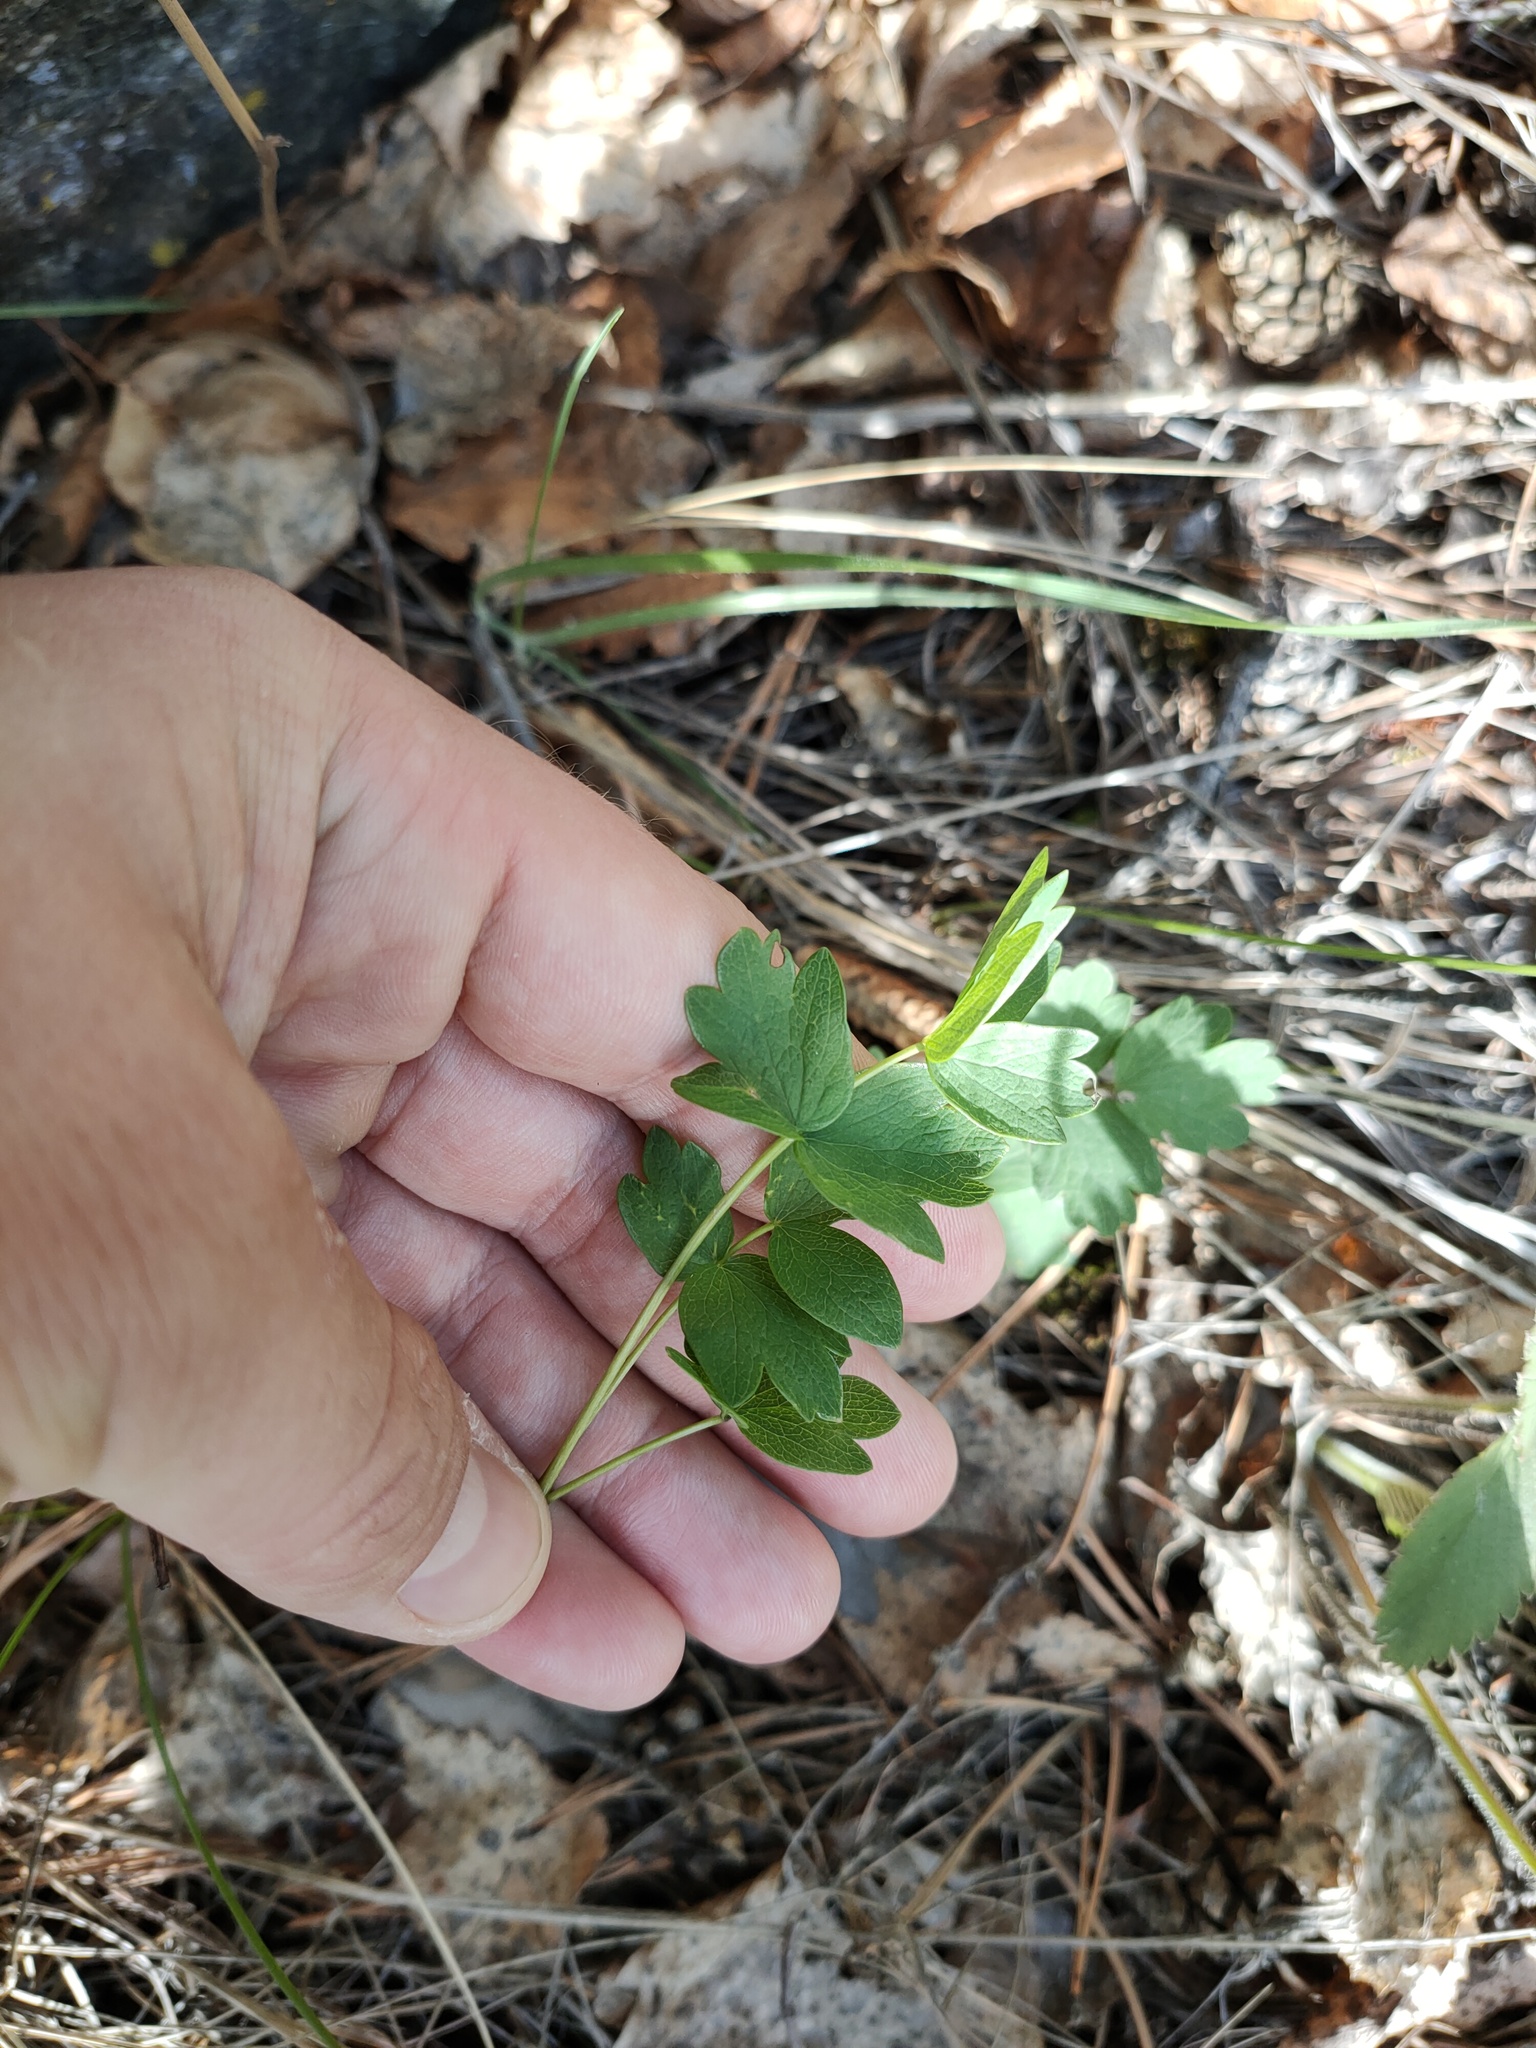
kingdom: Plantae
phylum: Tracheophyta
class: Magnoliopsida
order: Ranunculales
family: Ranunculaceae
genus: Thalictrum
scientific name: Thalictrum
